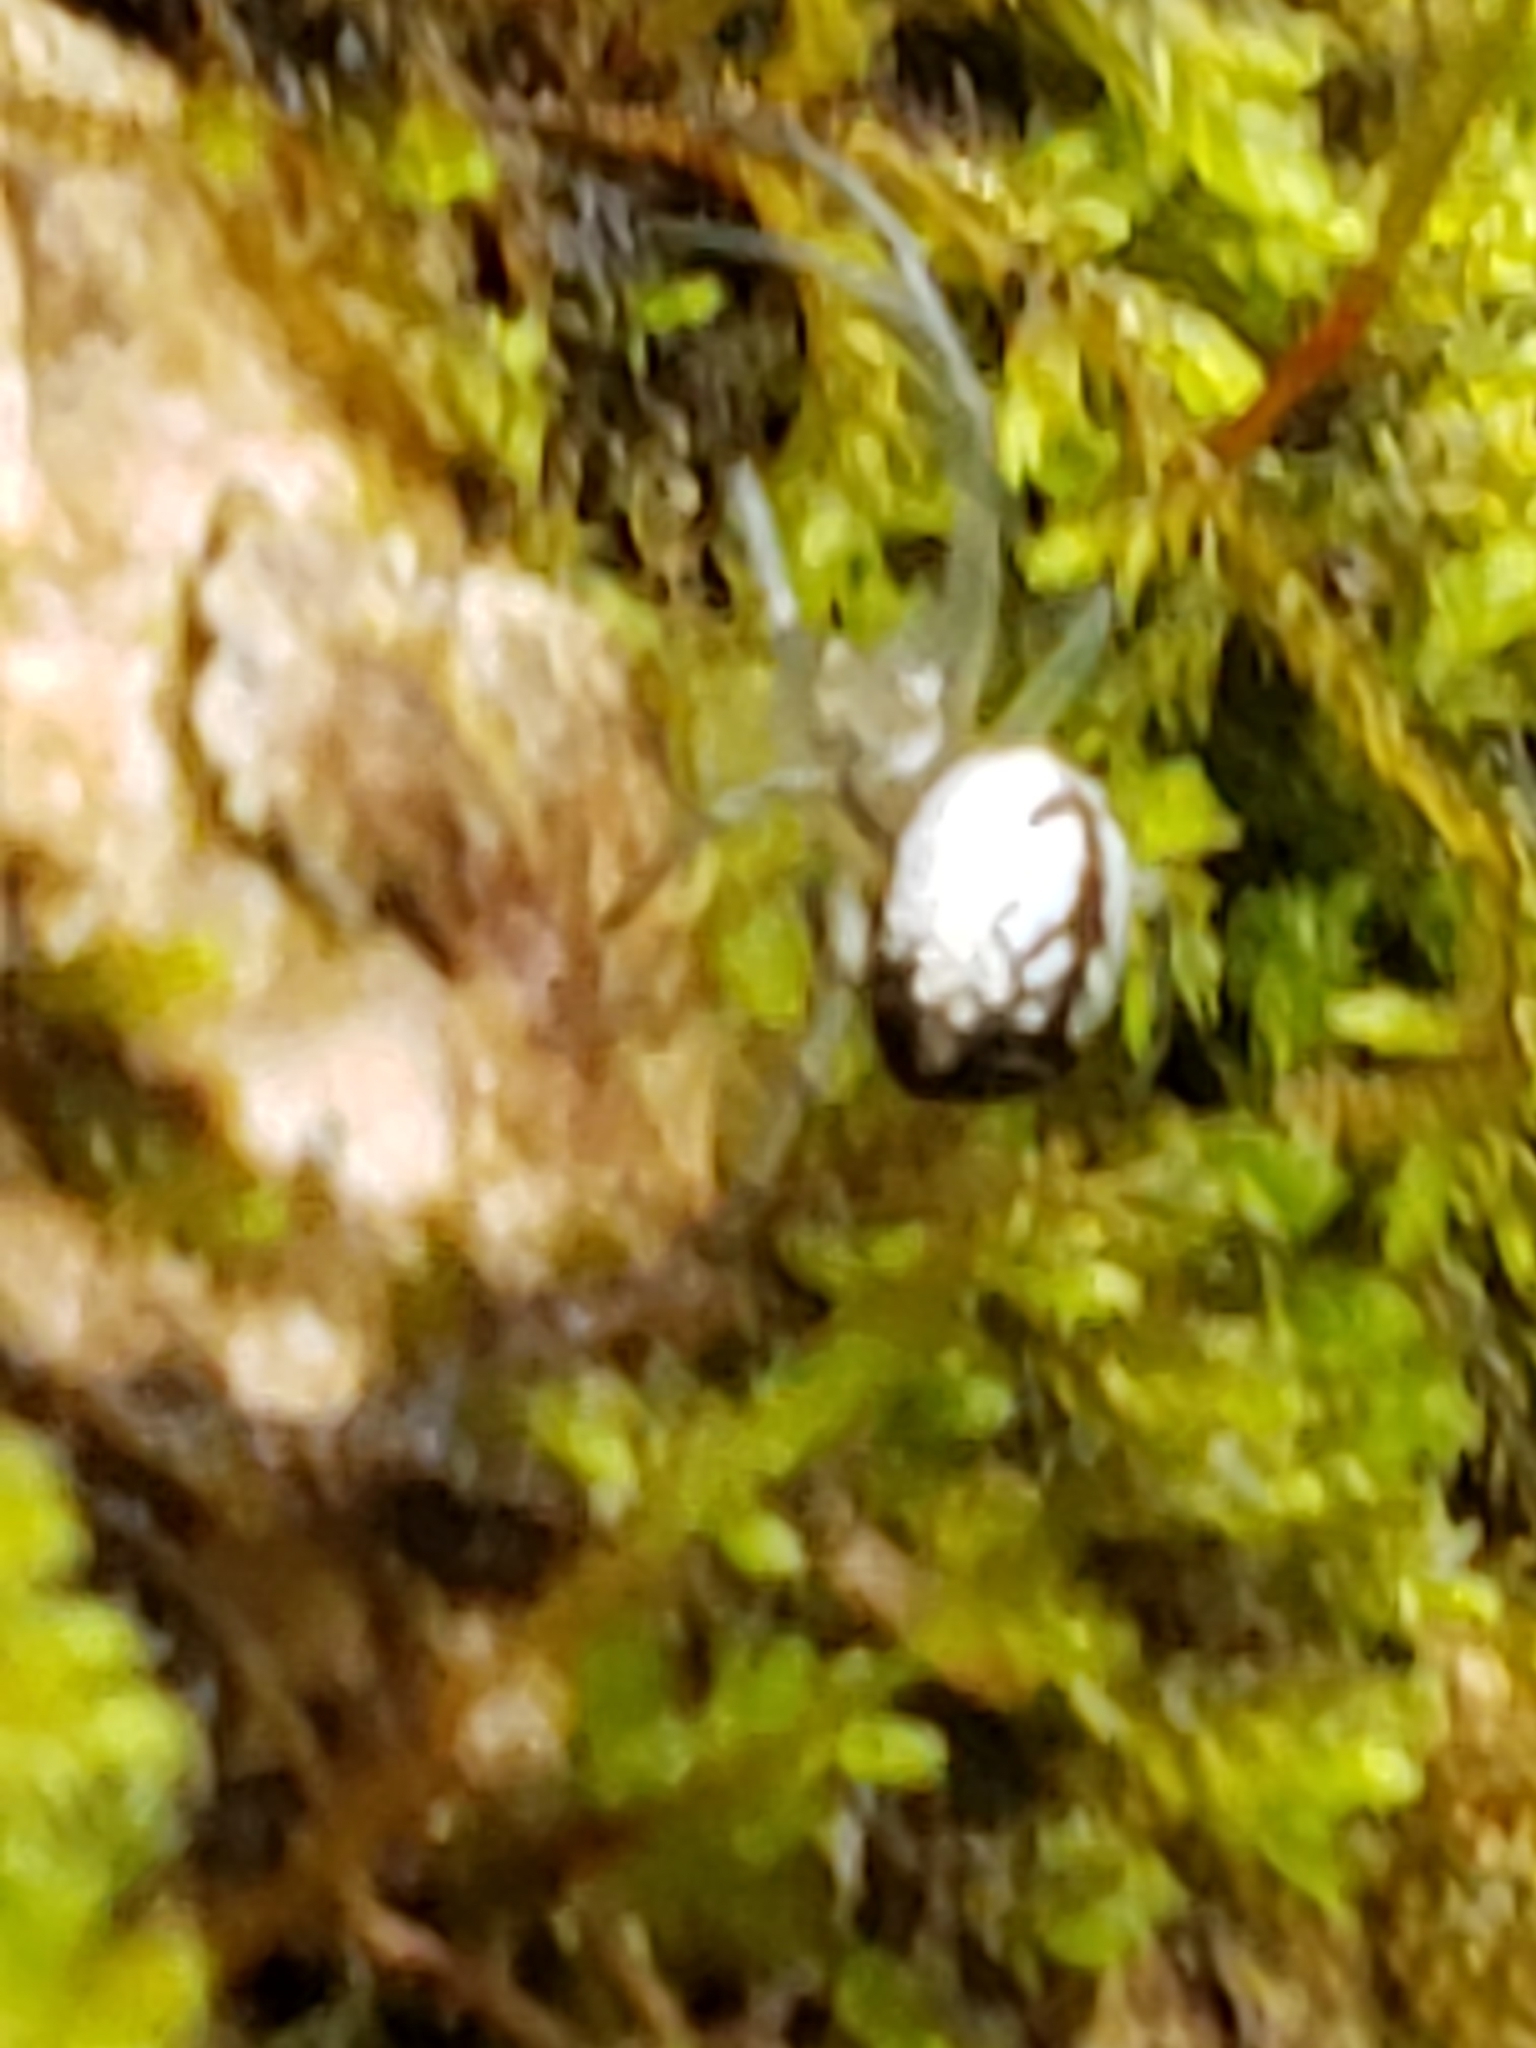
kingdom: Animalia
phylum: Arthropoda
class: Arachnida
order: Araneae
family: Tetragnathidae
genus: Leucauge
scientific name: Leucauge venusta
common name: Longjawed orb weavers
